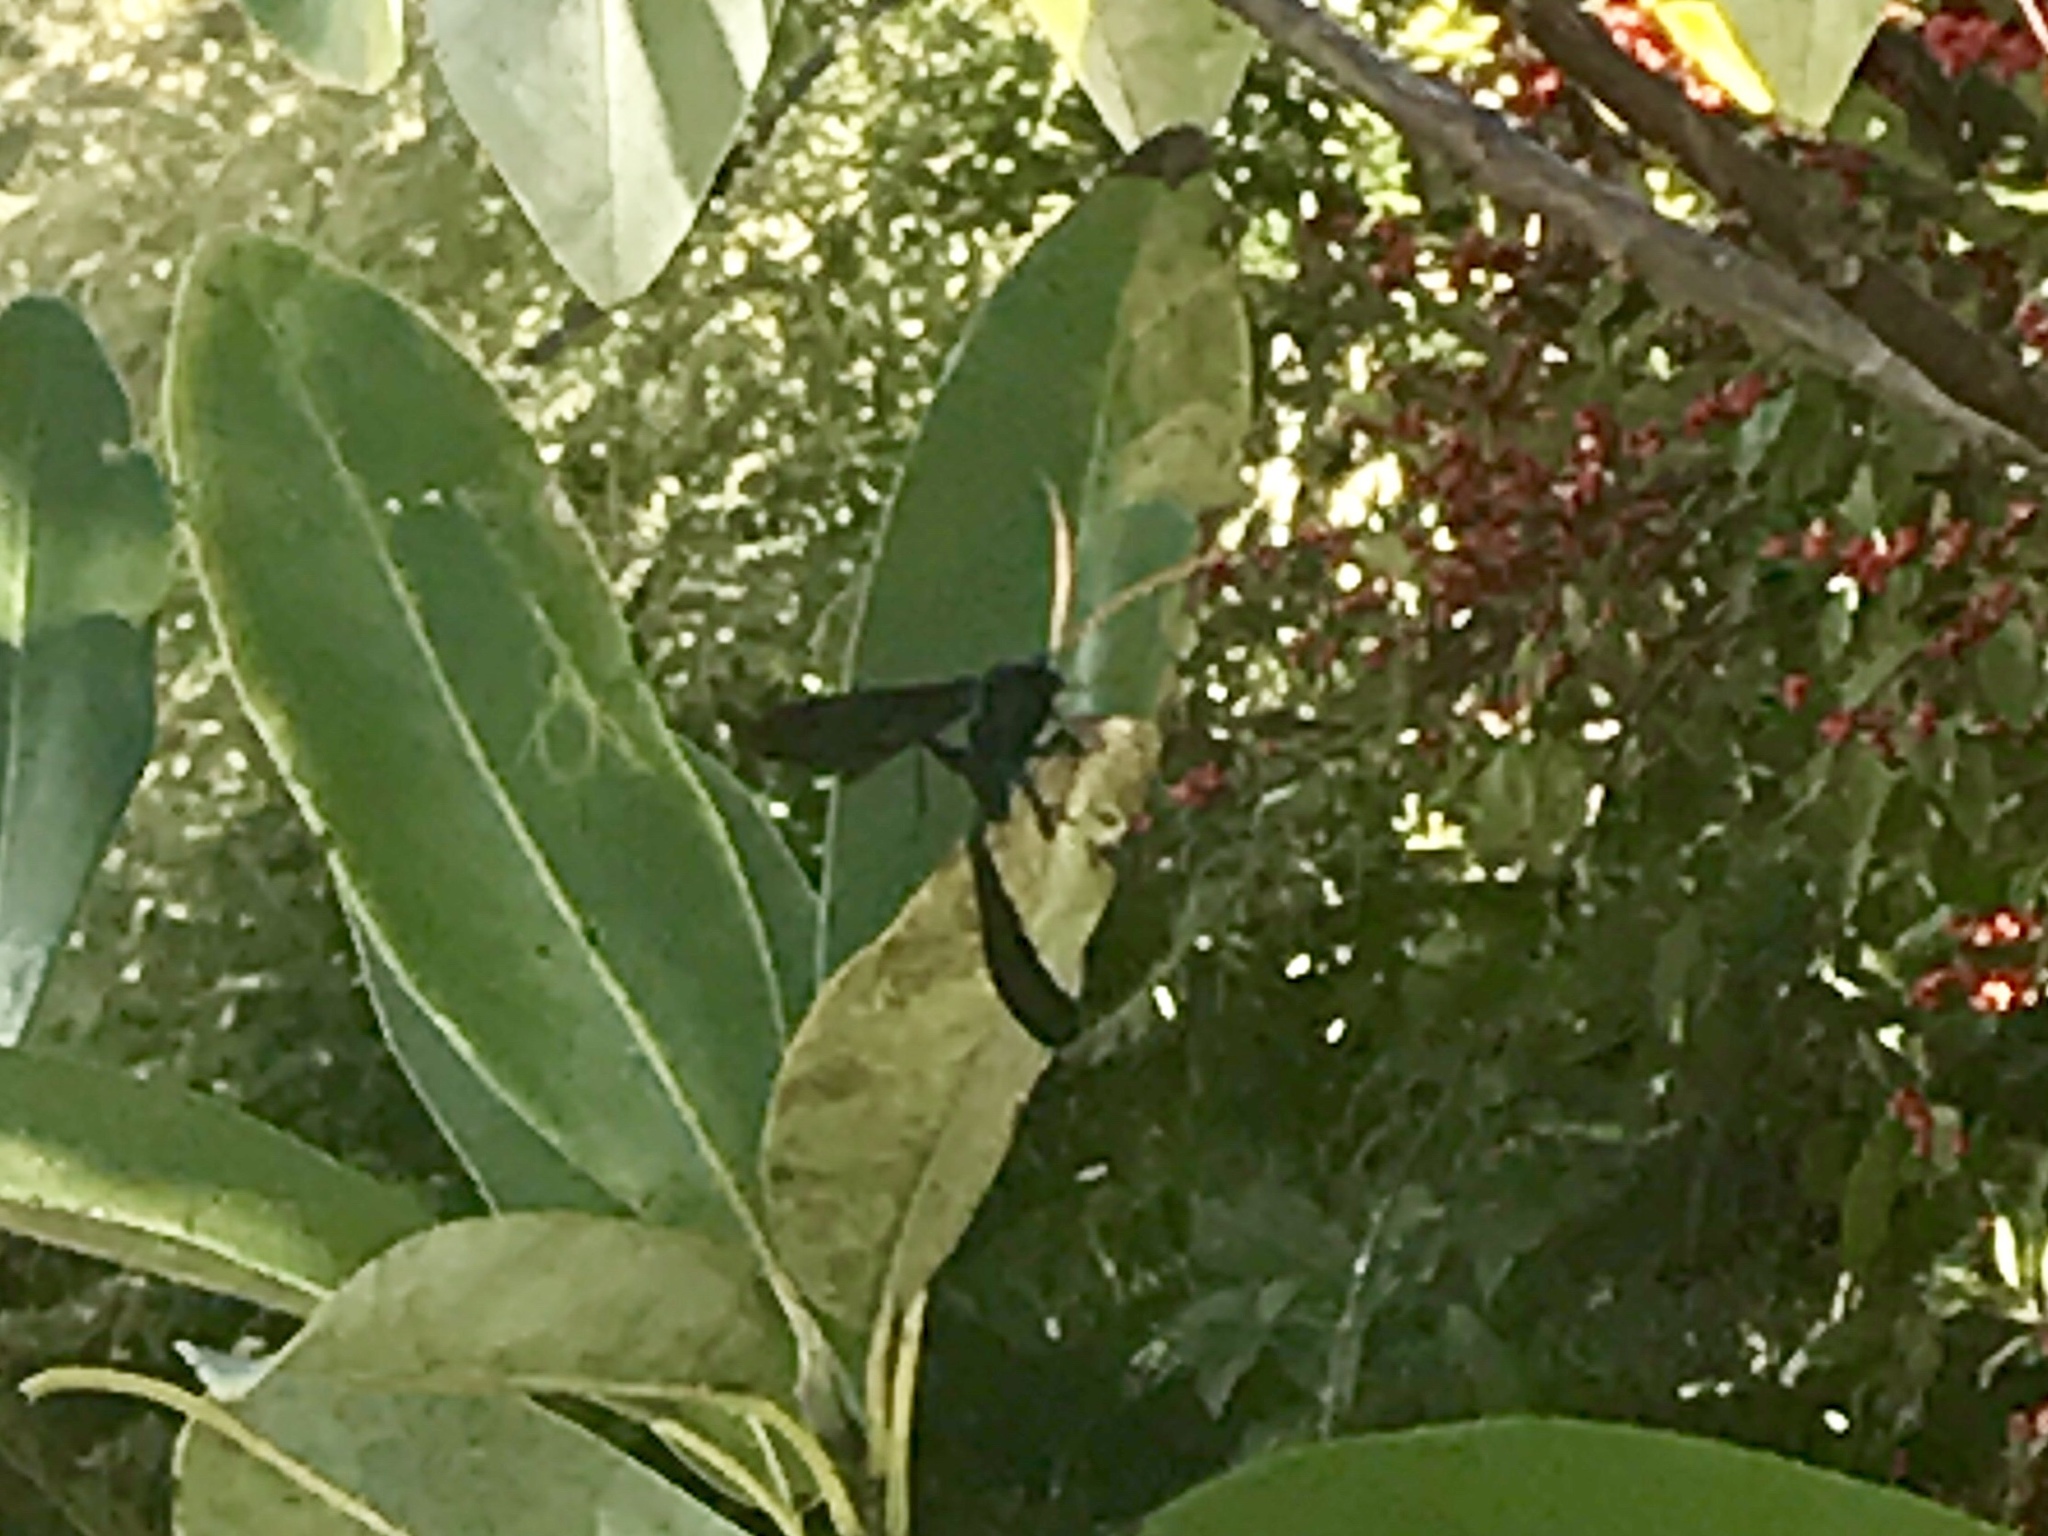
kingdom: Animalia
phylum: Arthropoda
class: Insecta
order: Hymenoptera
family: Ichneumonidae
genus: Thyreodon
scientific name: Thyreodon atricolor
